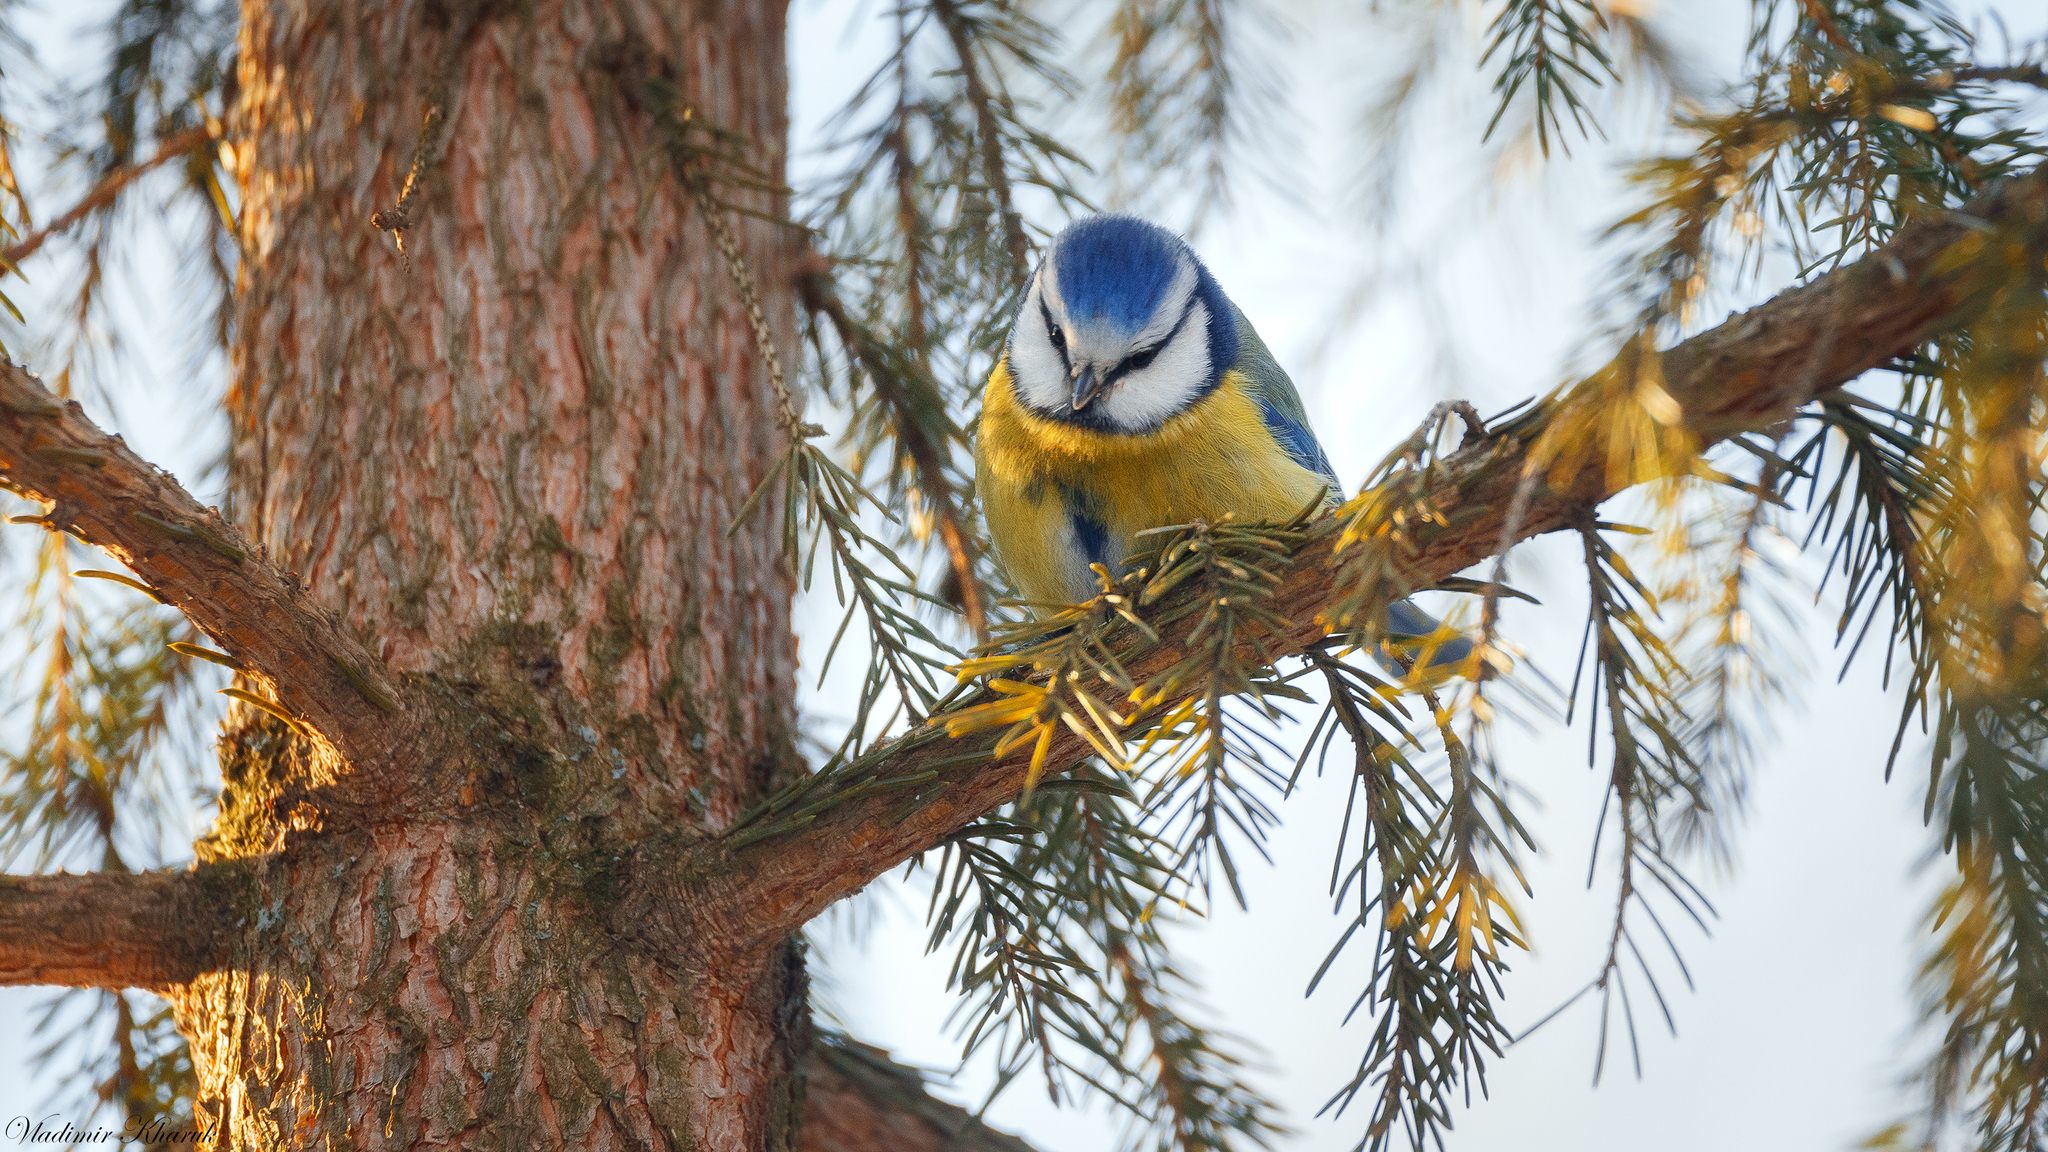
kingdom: Animalia
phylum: Chordata
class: Aves
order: Passeriformes
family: Paridae
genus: Cyanistes
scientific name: Cyanistes caeruleus
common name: Eurasian blue tit
